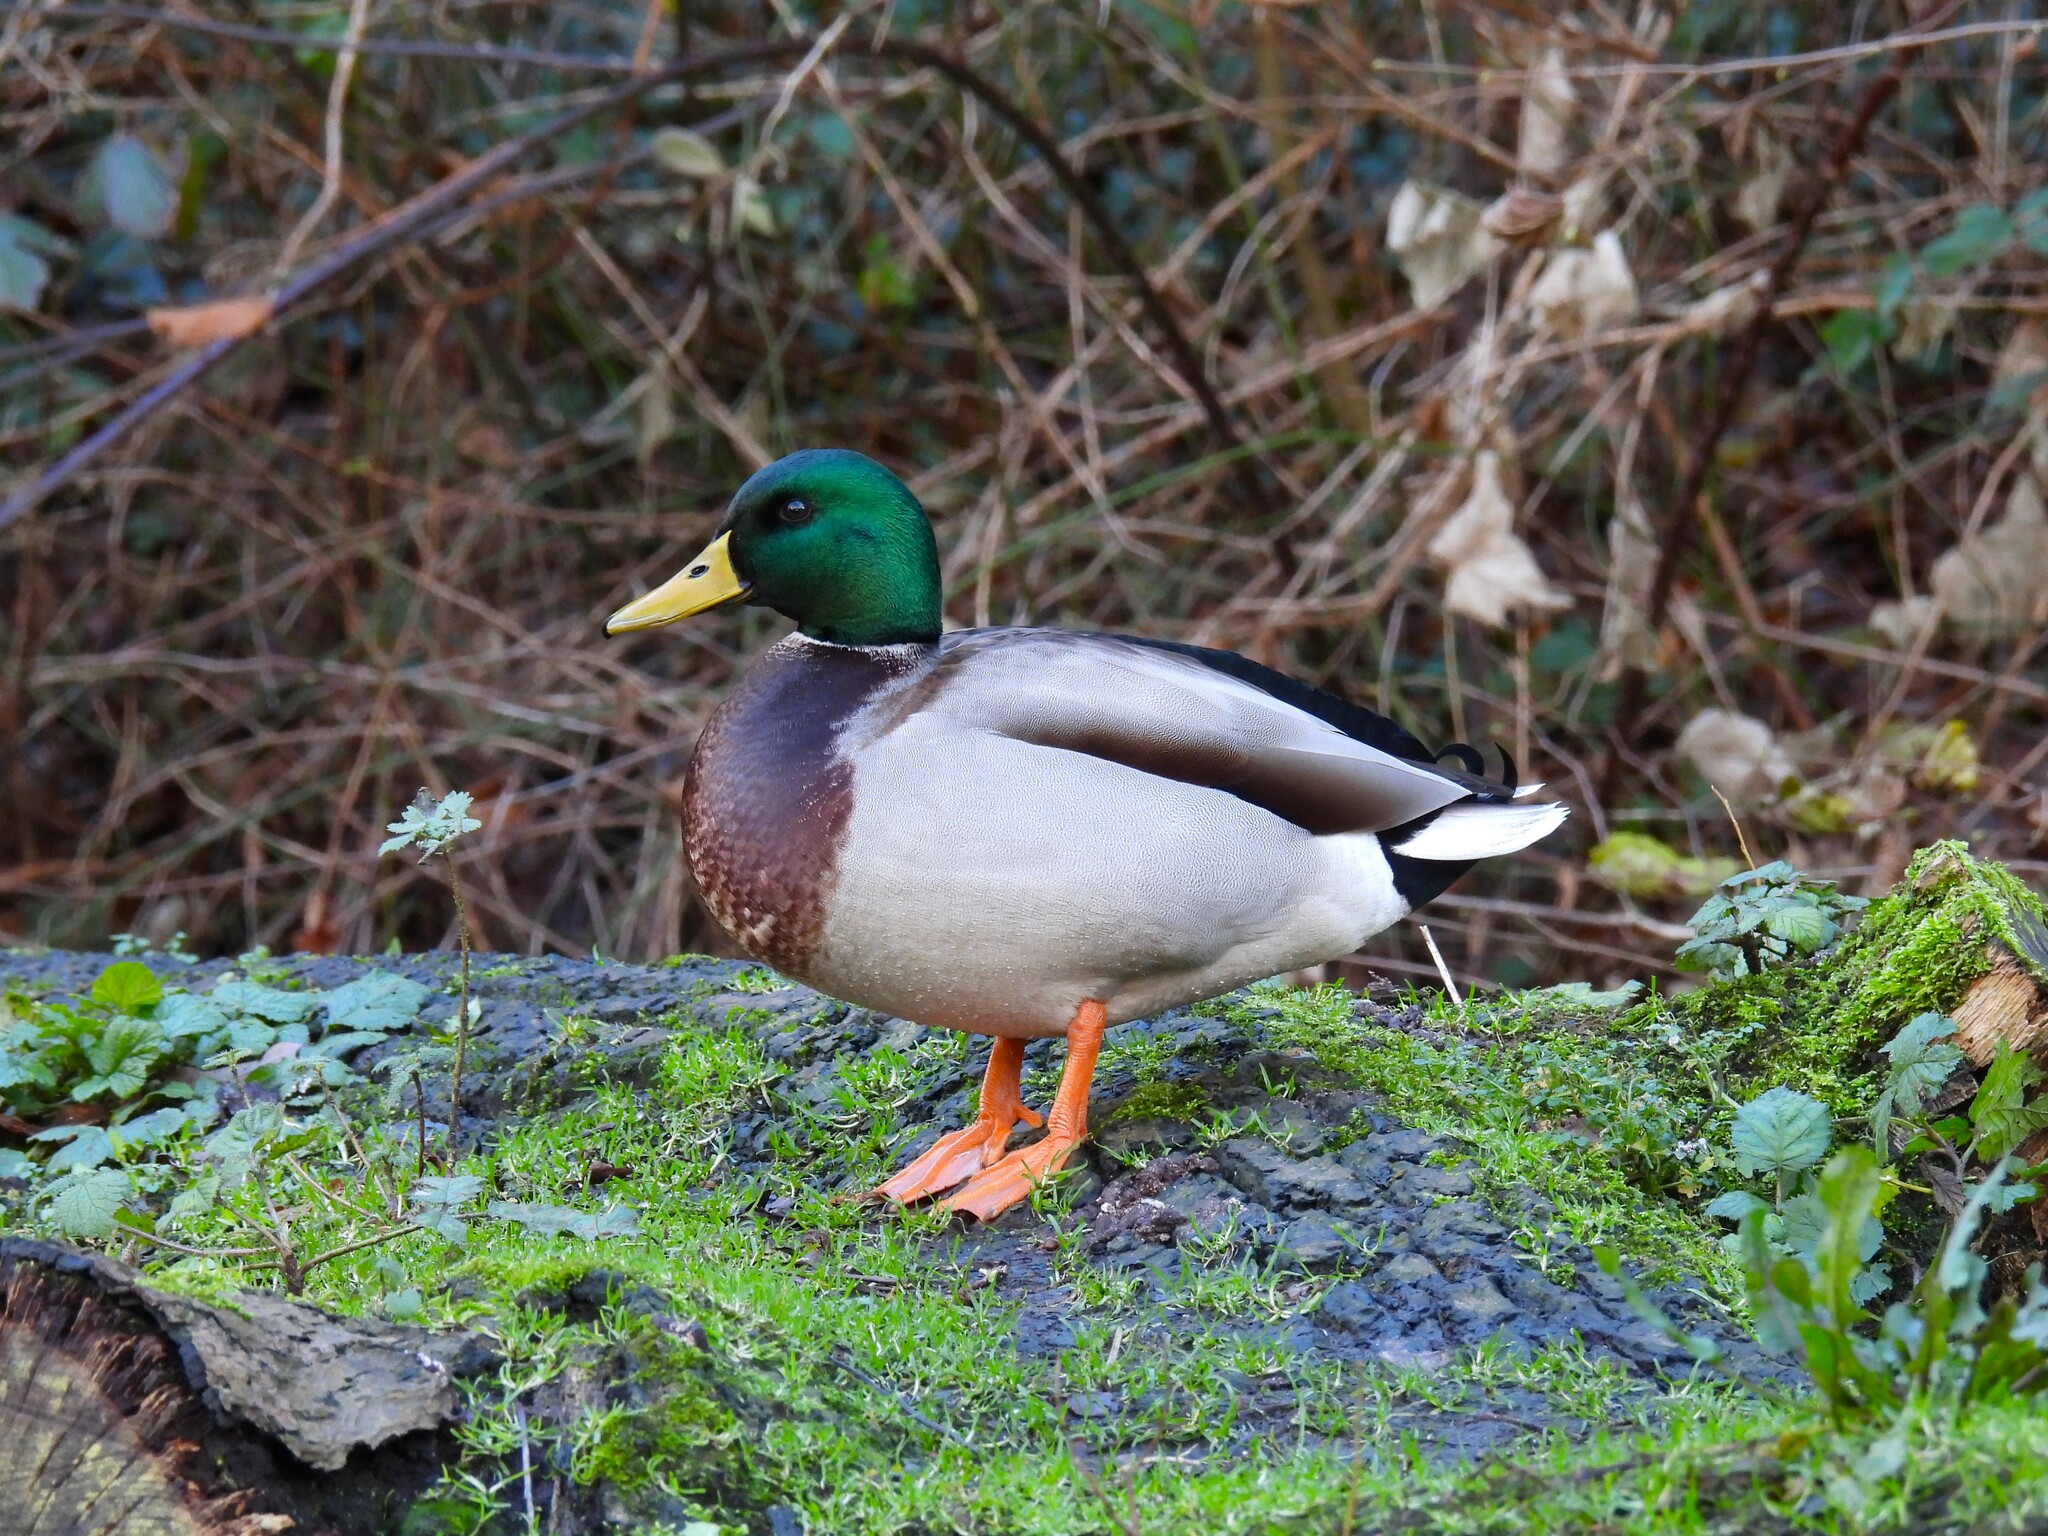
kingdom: Animalia
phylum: Chordata
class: Aves
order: Anseriformes
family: Anatidae
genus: Anas
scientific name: Anas platyrhynchos
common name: Mallard
